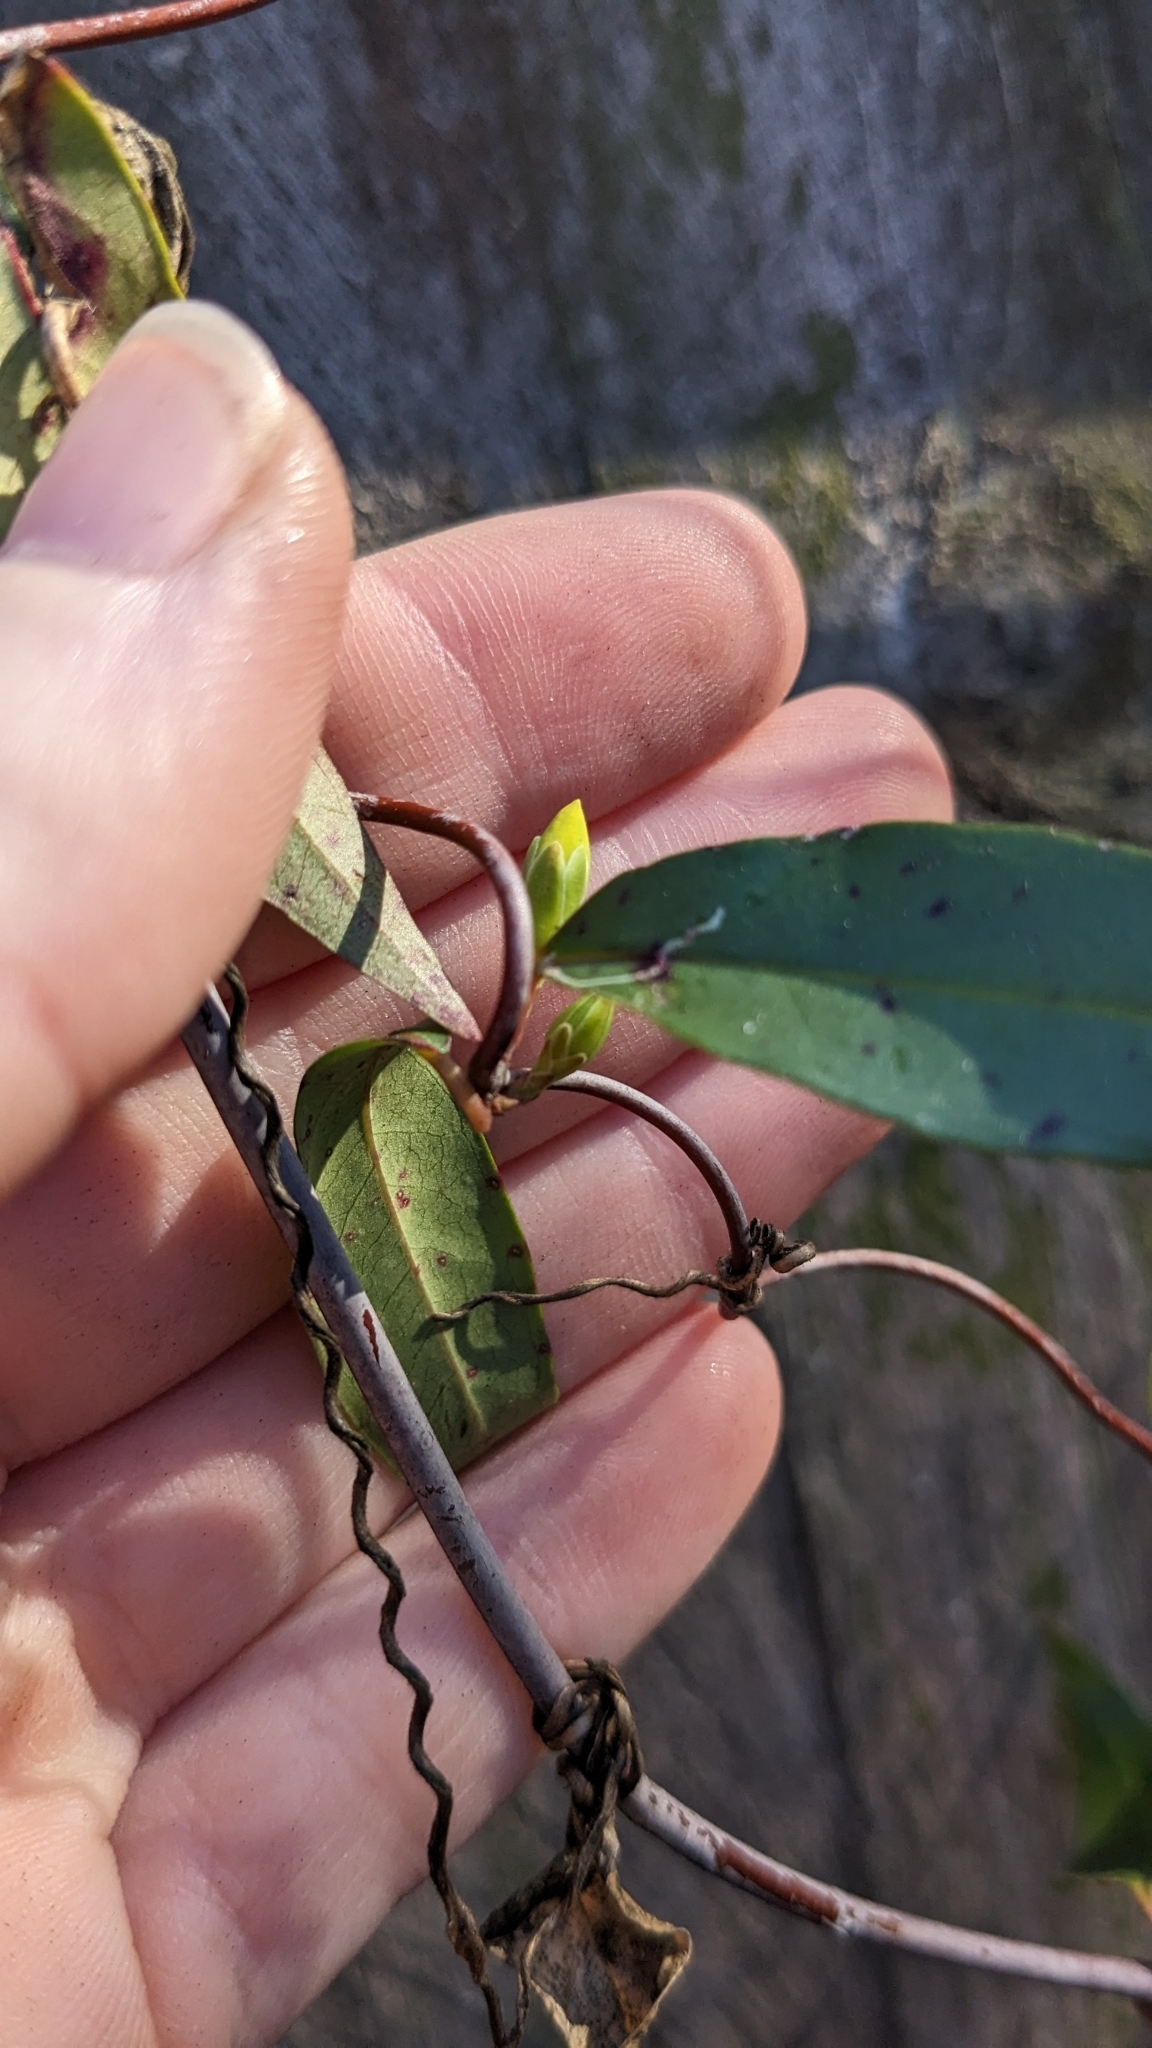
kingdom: Plantae
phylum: Tracheophyta
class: Magnoliopsida
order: Gentianales
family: Gelsemiaceae
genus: Gelsemium
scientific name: Gelsemium sempervirens
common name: Carolina-jasmine
